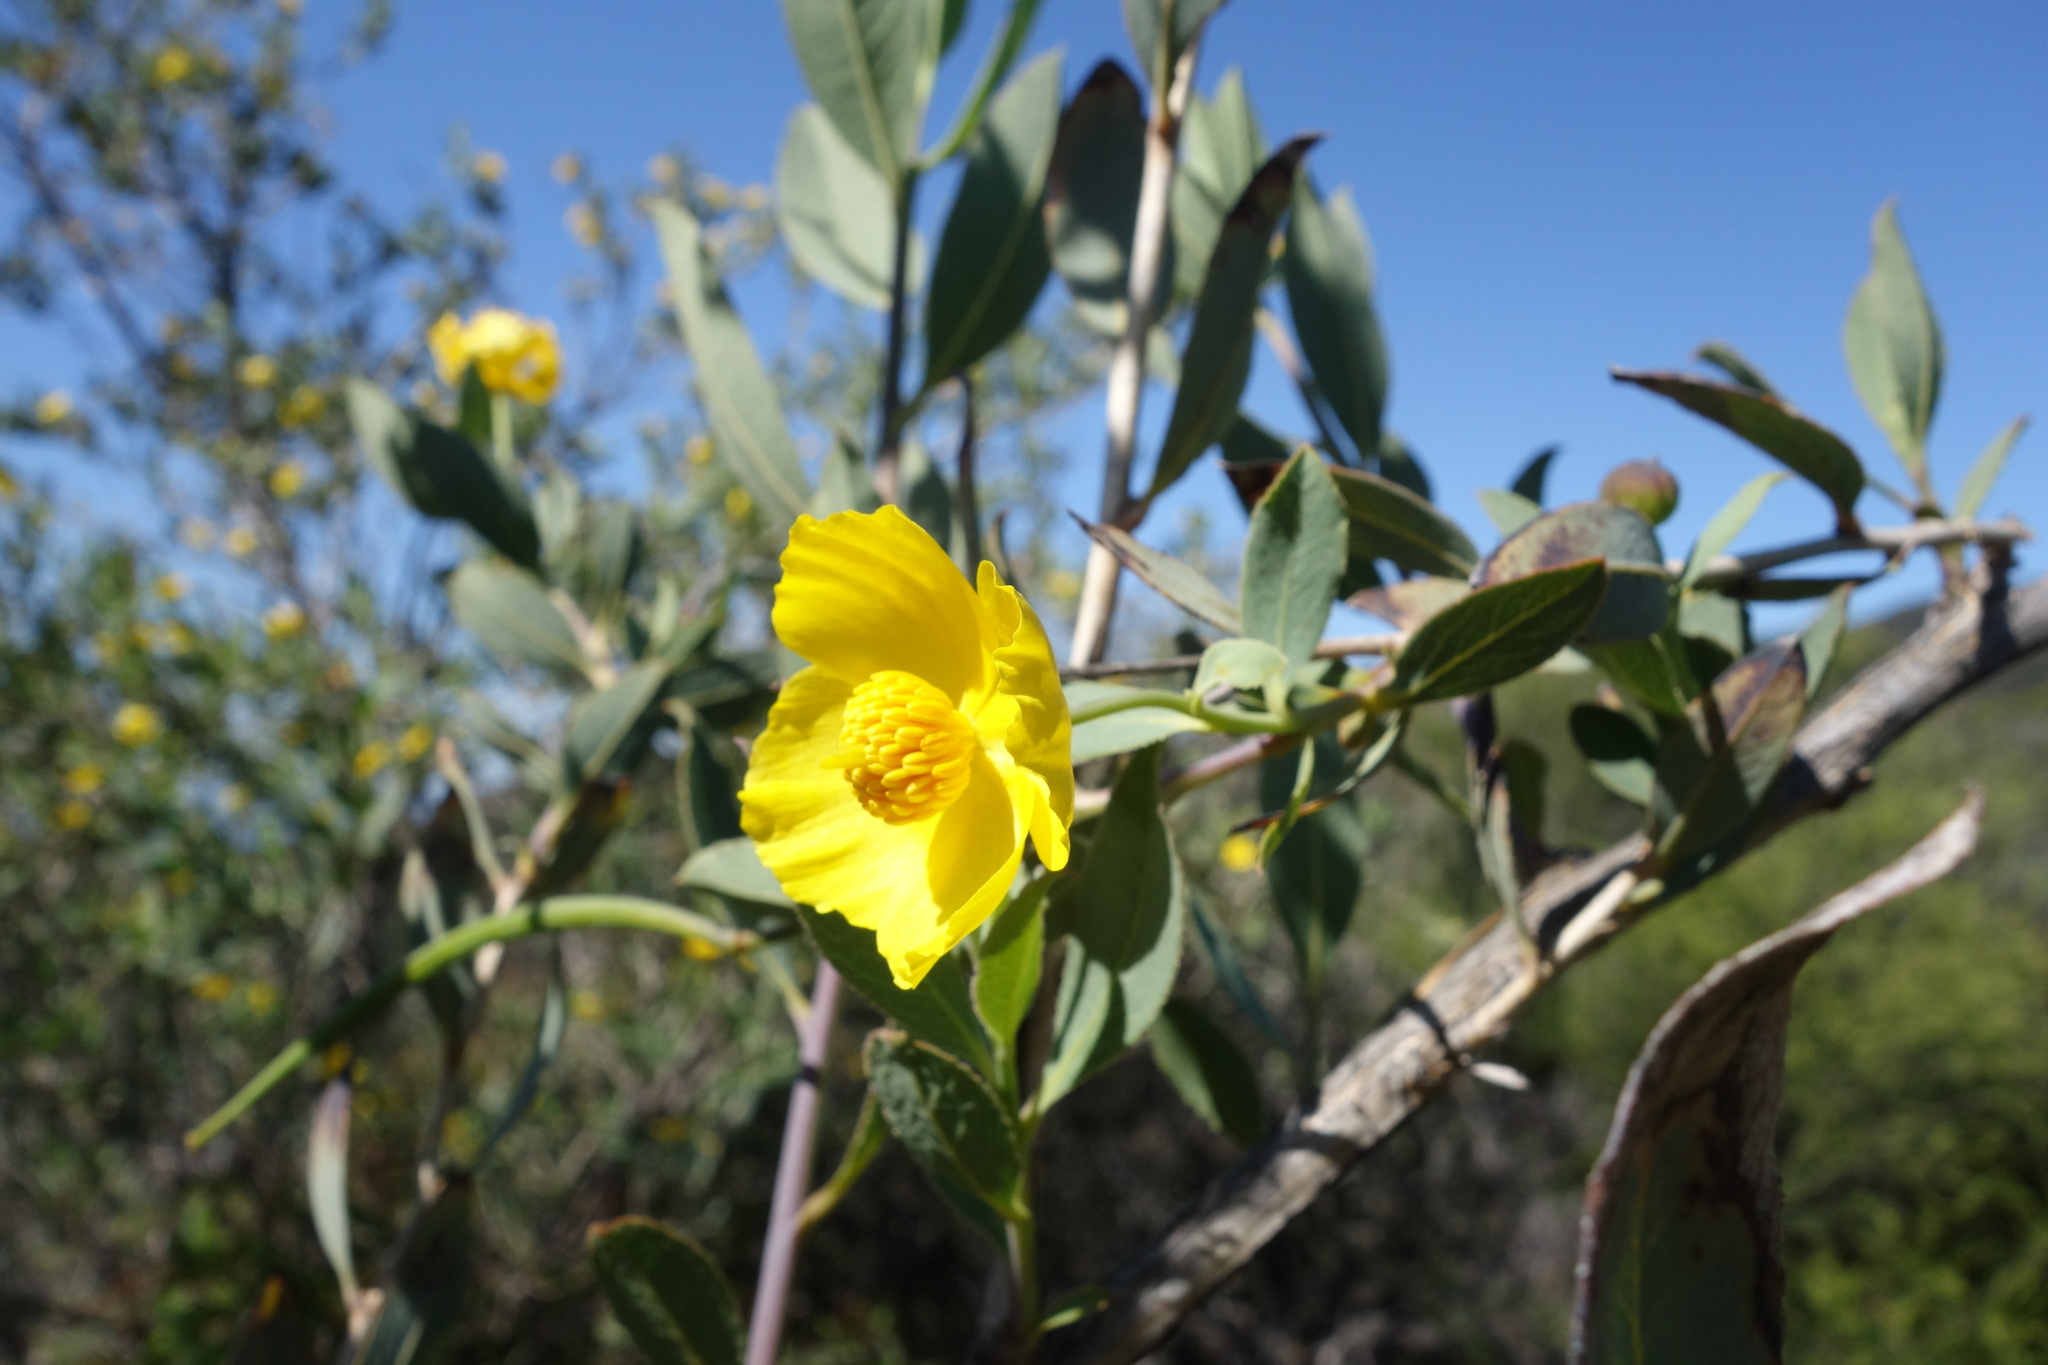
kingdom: Plantae
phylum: Tracheophyta
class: Magnoliopsida
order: Ranunculales
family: Papaveraceae
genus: Dendromecon
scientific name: Dendromecon rigida
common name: Tree poppy
